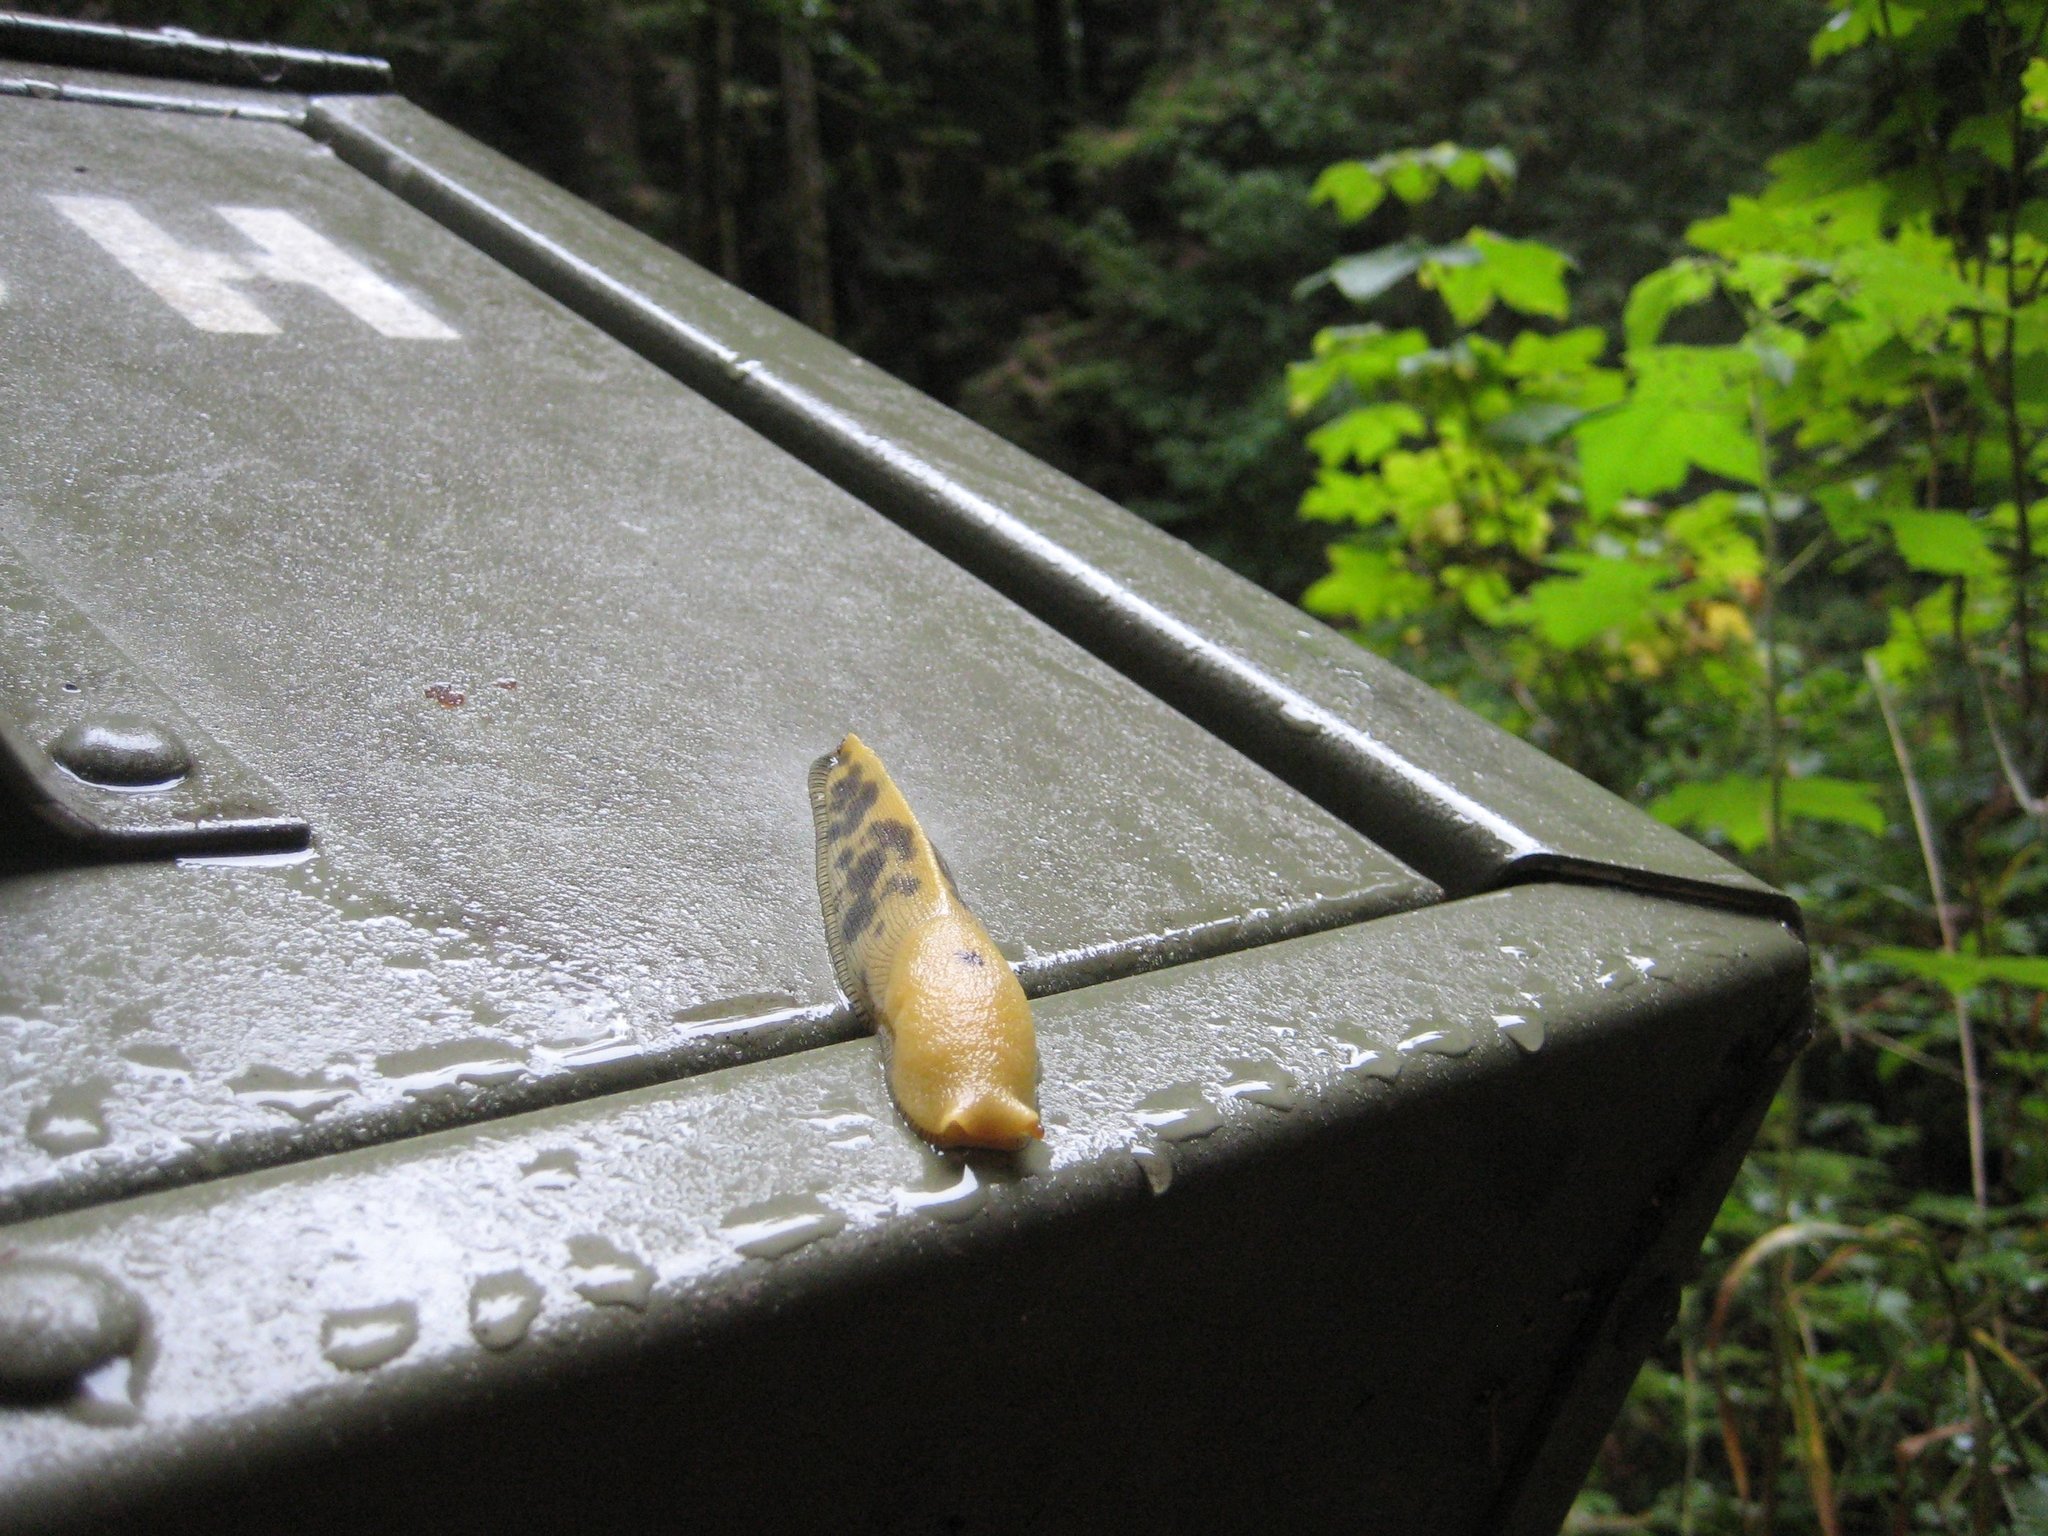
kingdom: Animalia
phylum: Mollusca
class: Gastropoda
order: Stylommatophora
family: Ariolimacidae
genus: Ariolimax
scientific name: Ariolimax buttoni
